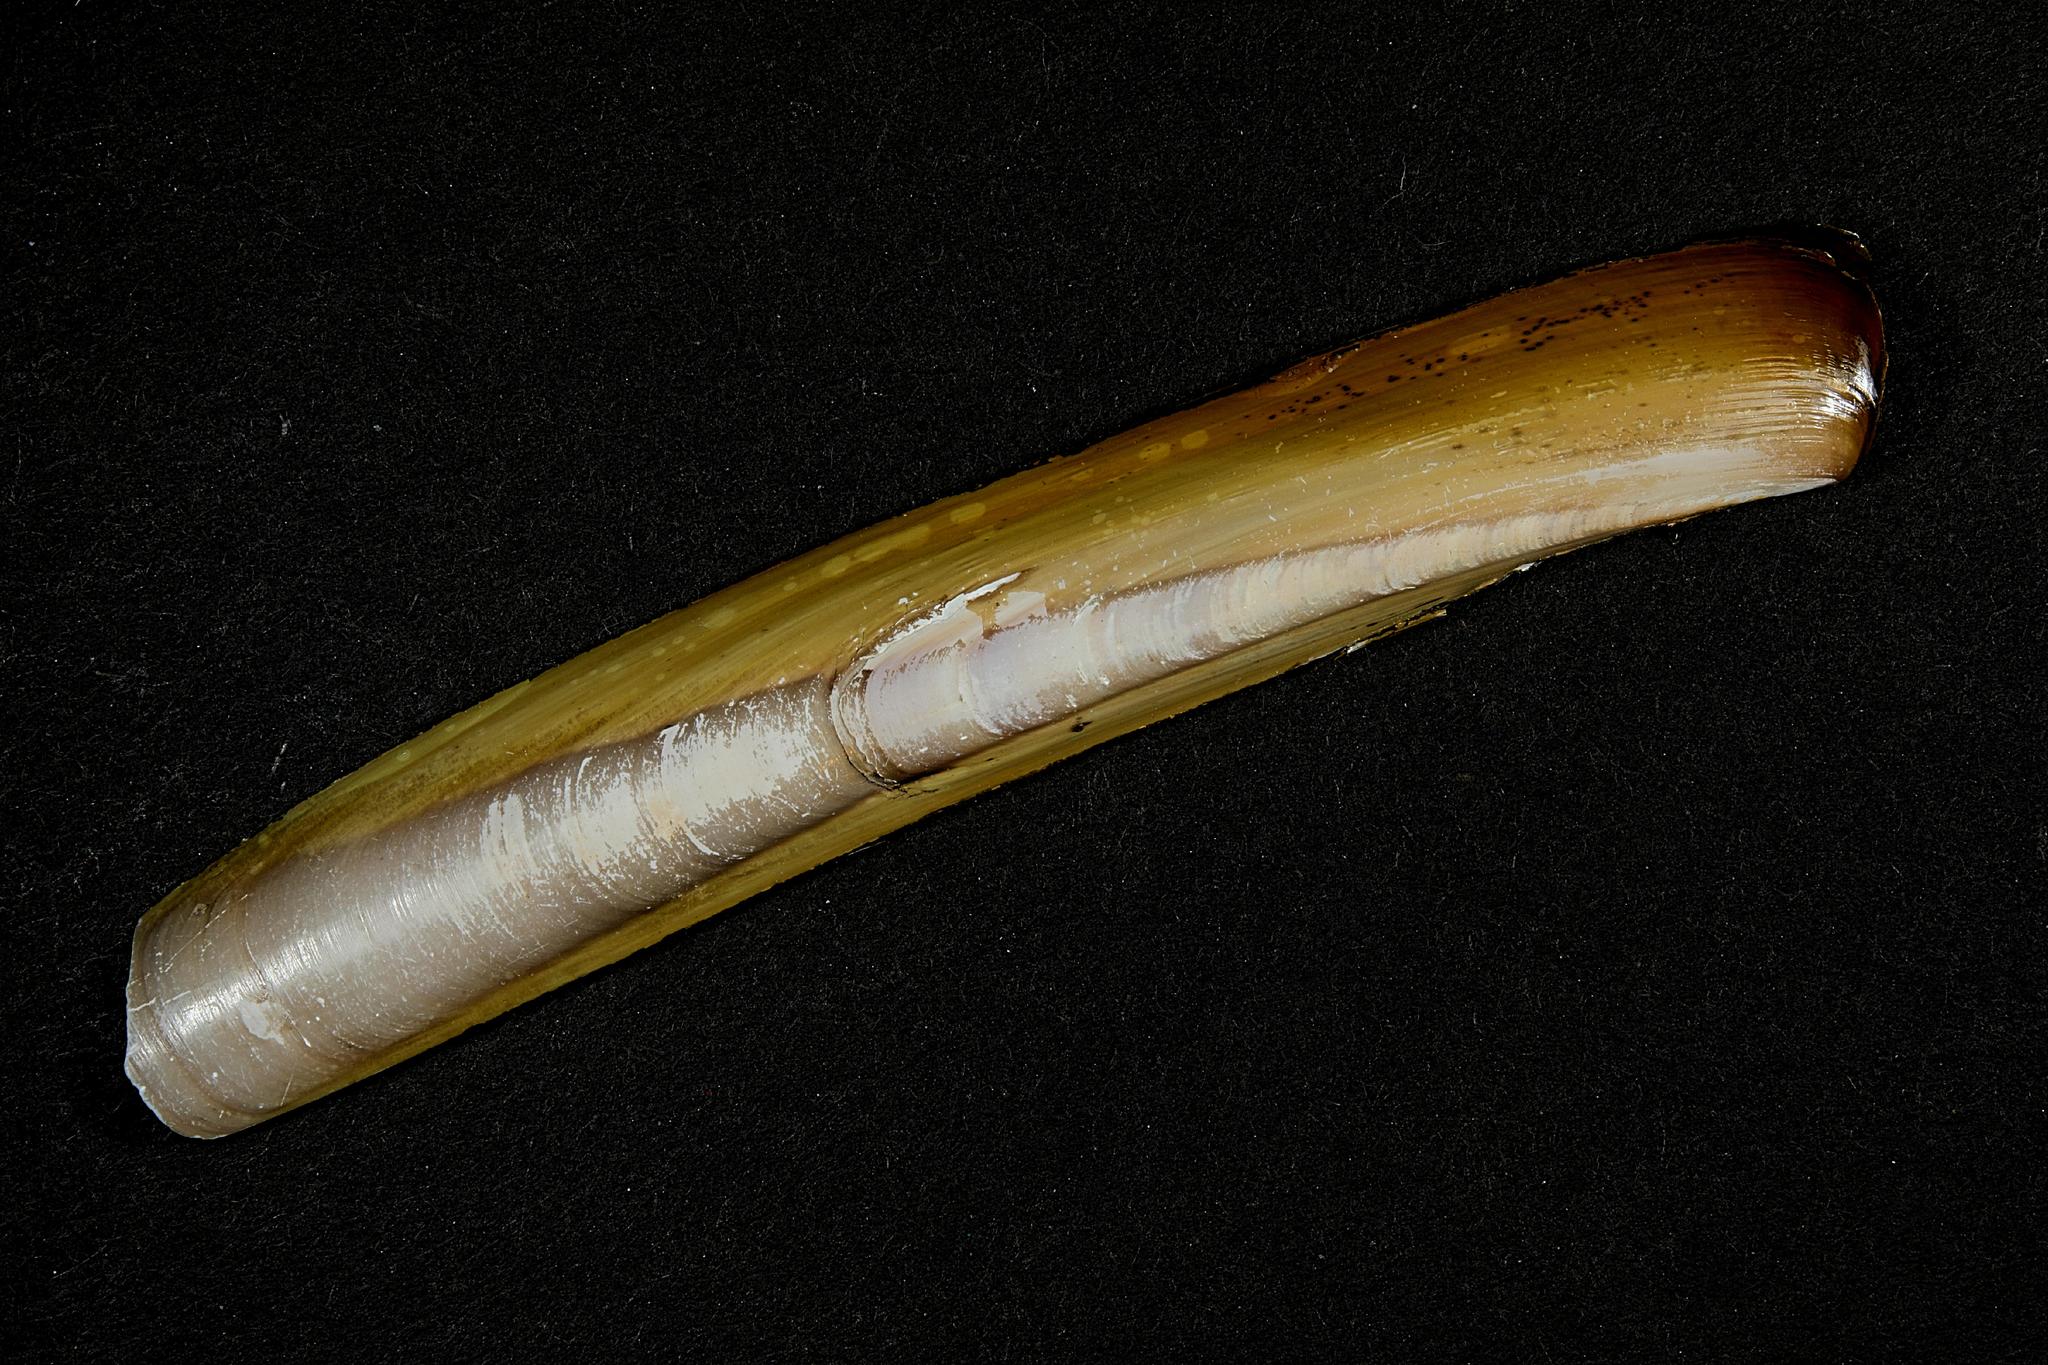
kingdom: Animalia
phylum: Mollusca
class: Bivalvia
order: Adapedonta
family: Pharidae
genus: Ensis
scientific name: Ensis leei
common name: American jack knife clam
